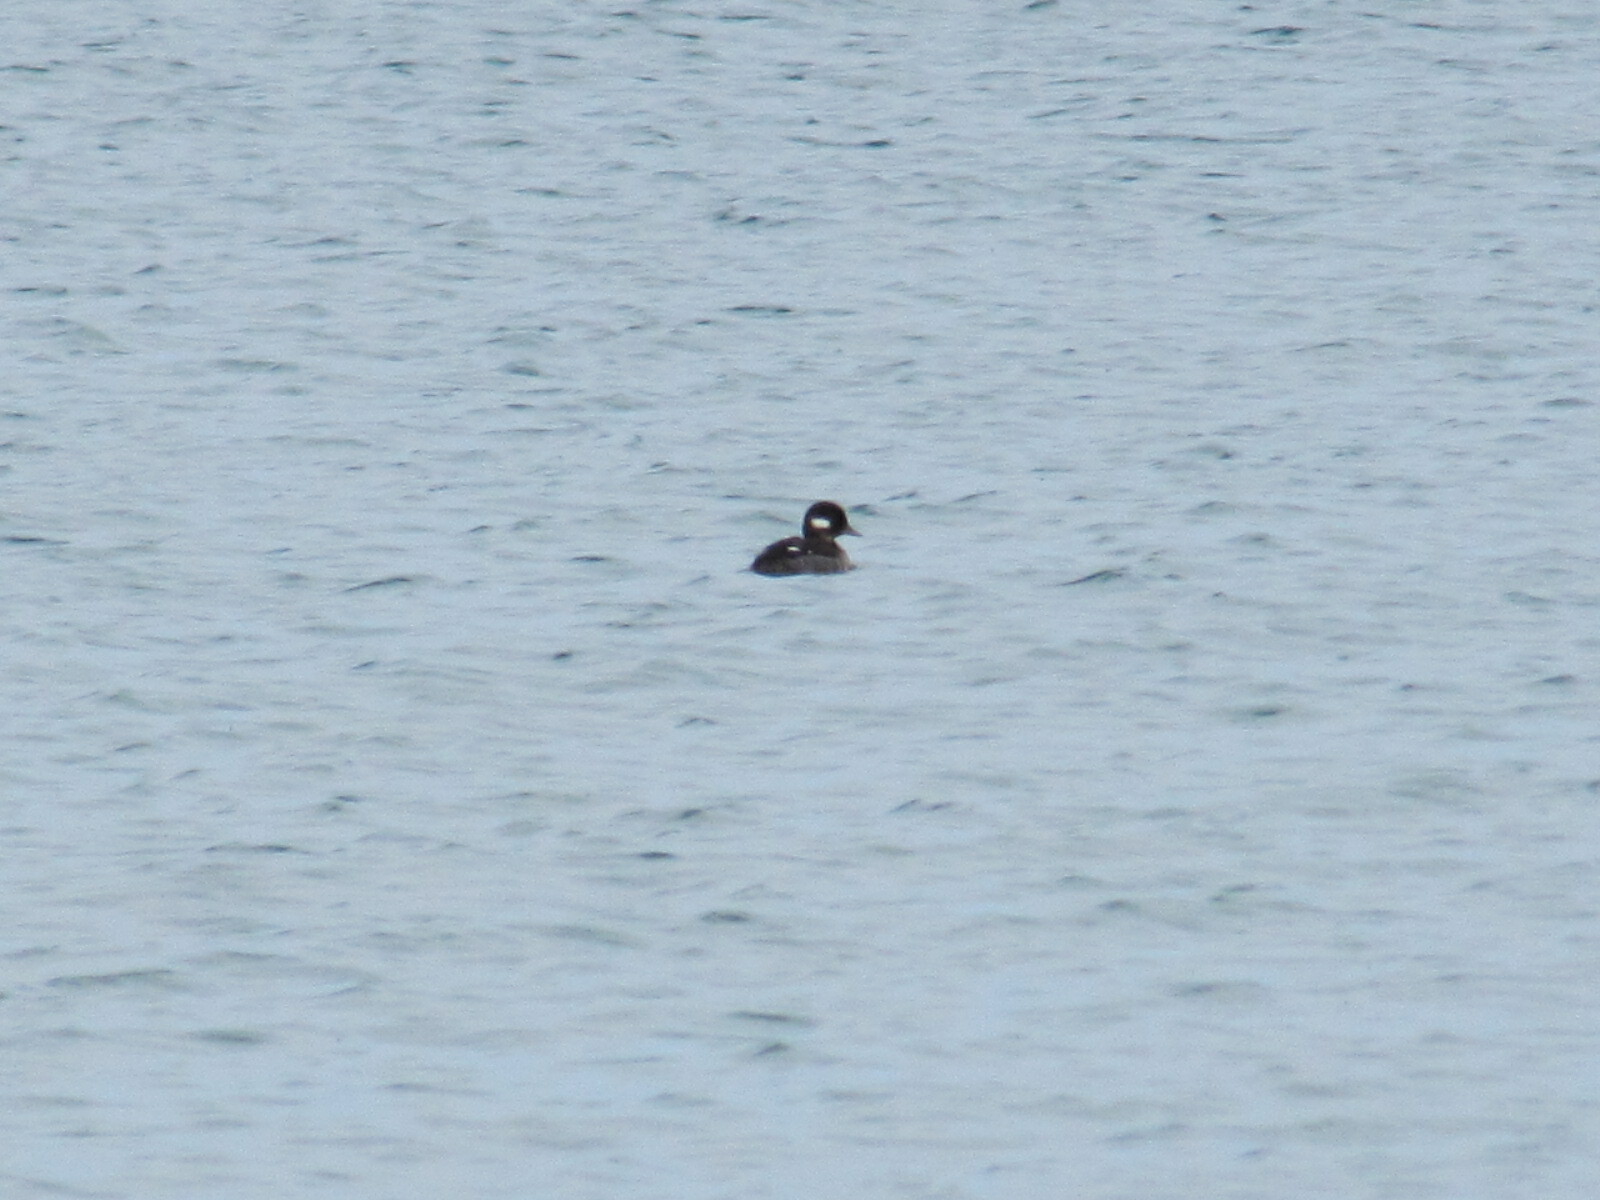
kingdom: Animalia
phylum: Chordata
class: Aves
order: Anseriformes
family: Anatidae
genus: Bucephala
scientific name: Bucephala albeola
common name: Bufflehead
